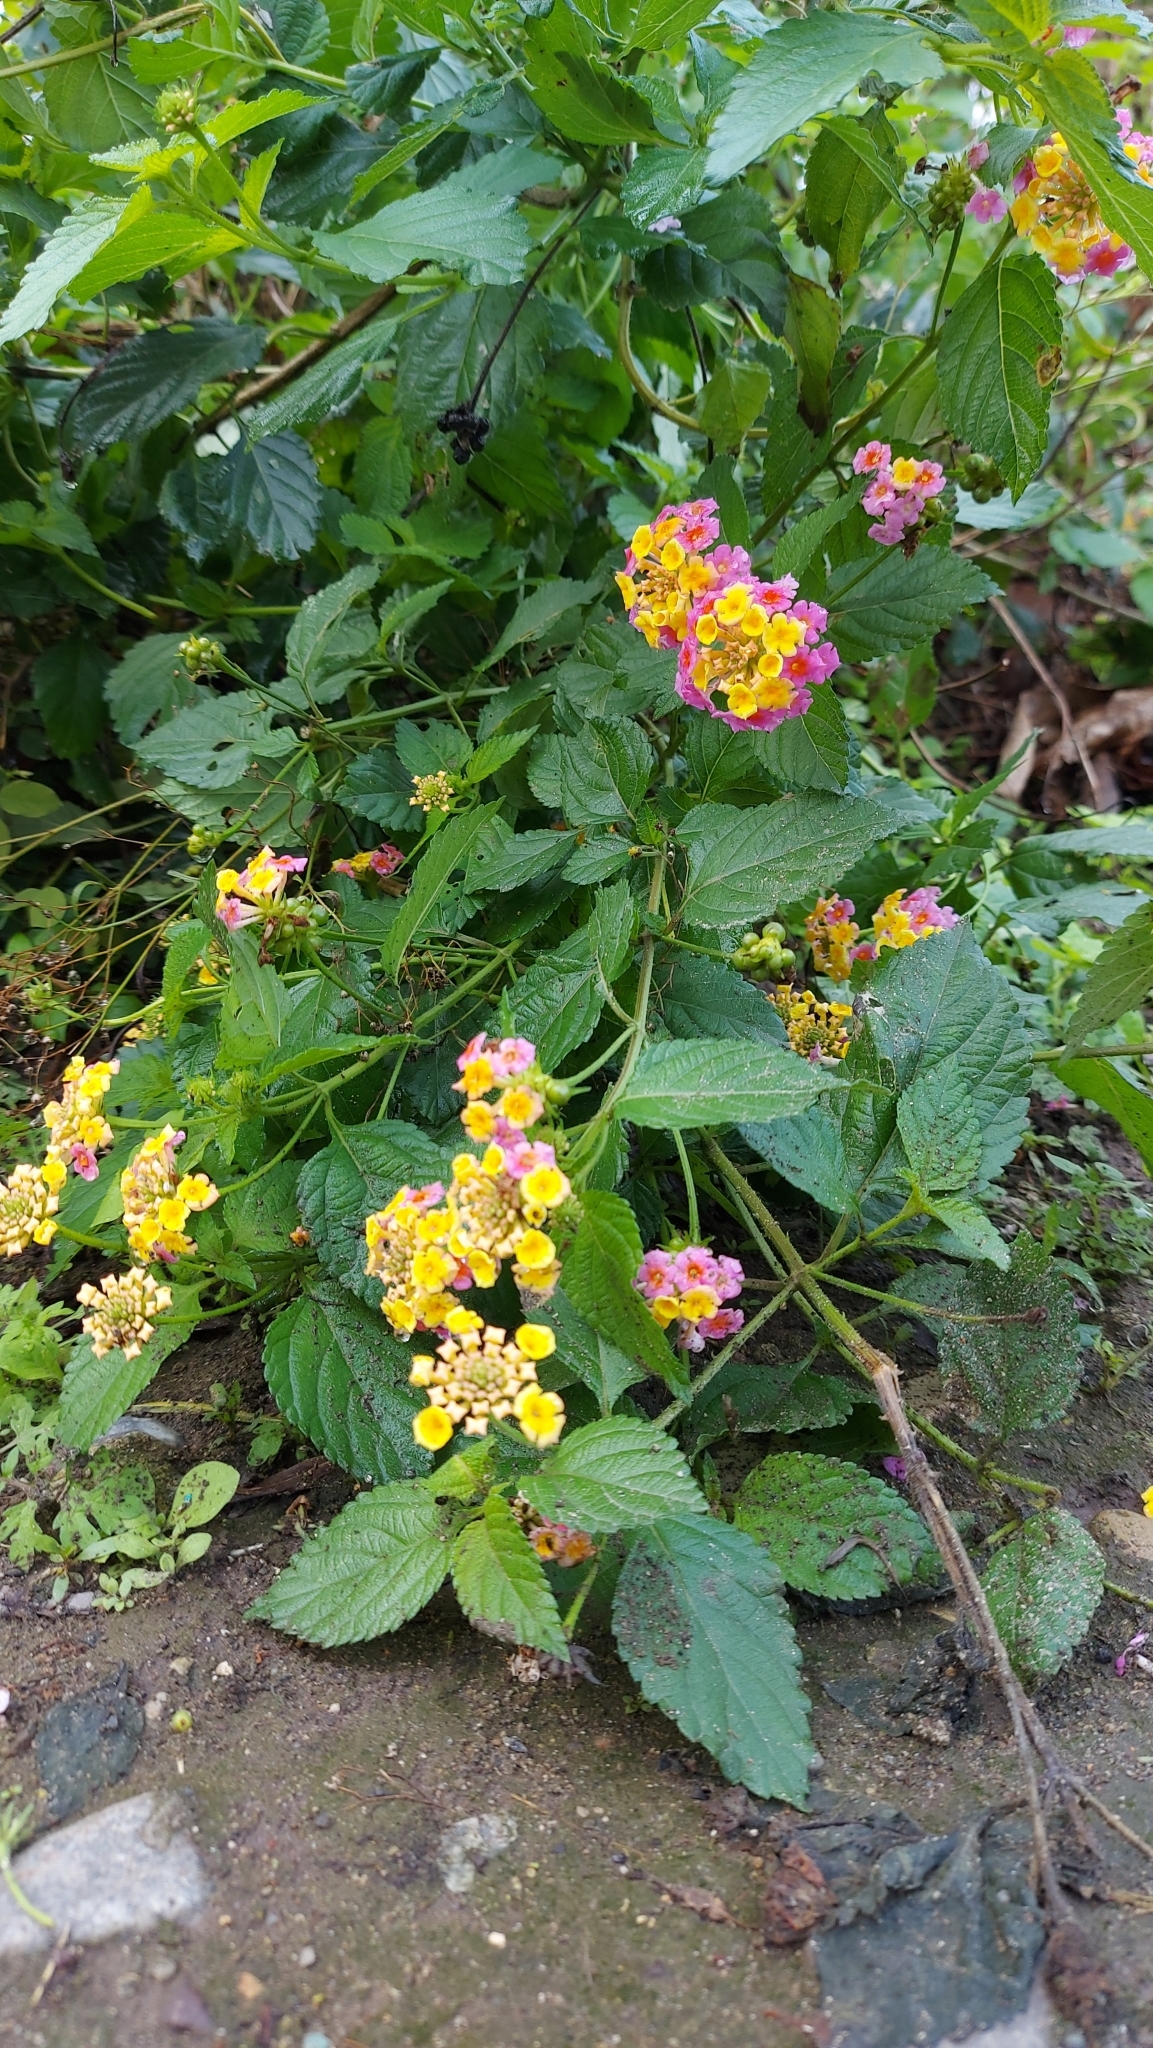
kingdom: Plantae
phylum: Tracheophyta
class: Magnoliopsida
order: Lamiales
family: Verbenaceae
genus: Lantana
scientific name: Lantana camara
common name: Lantana
